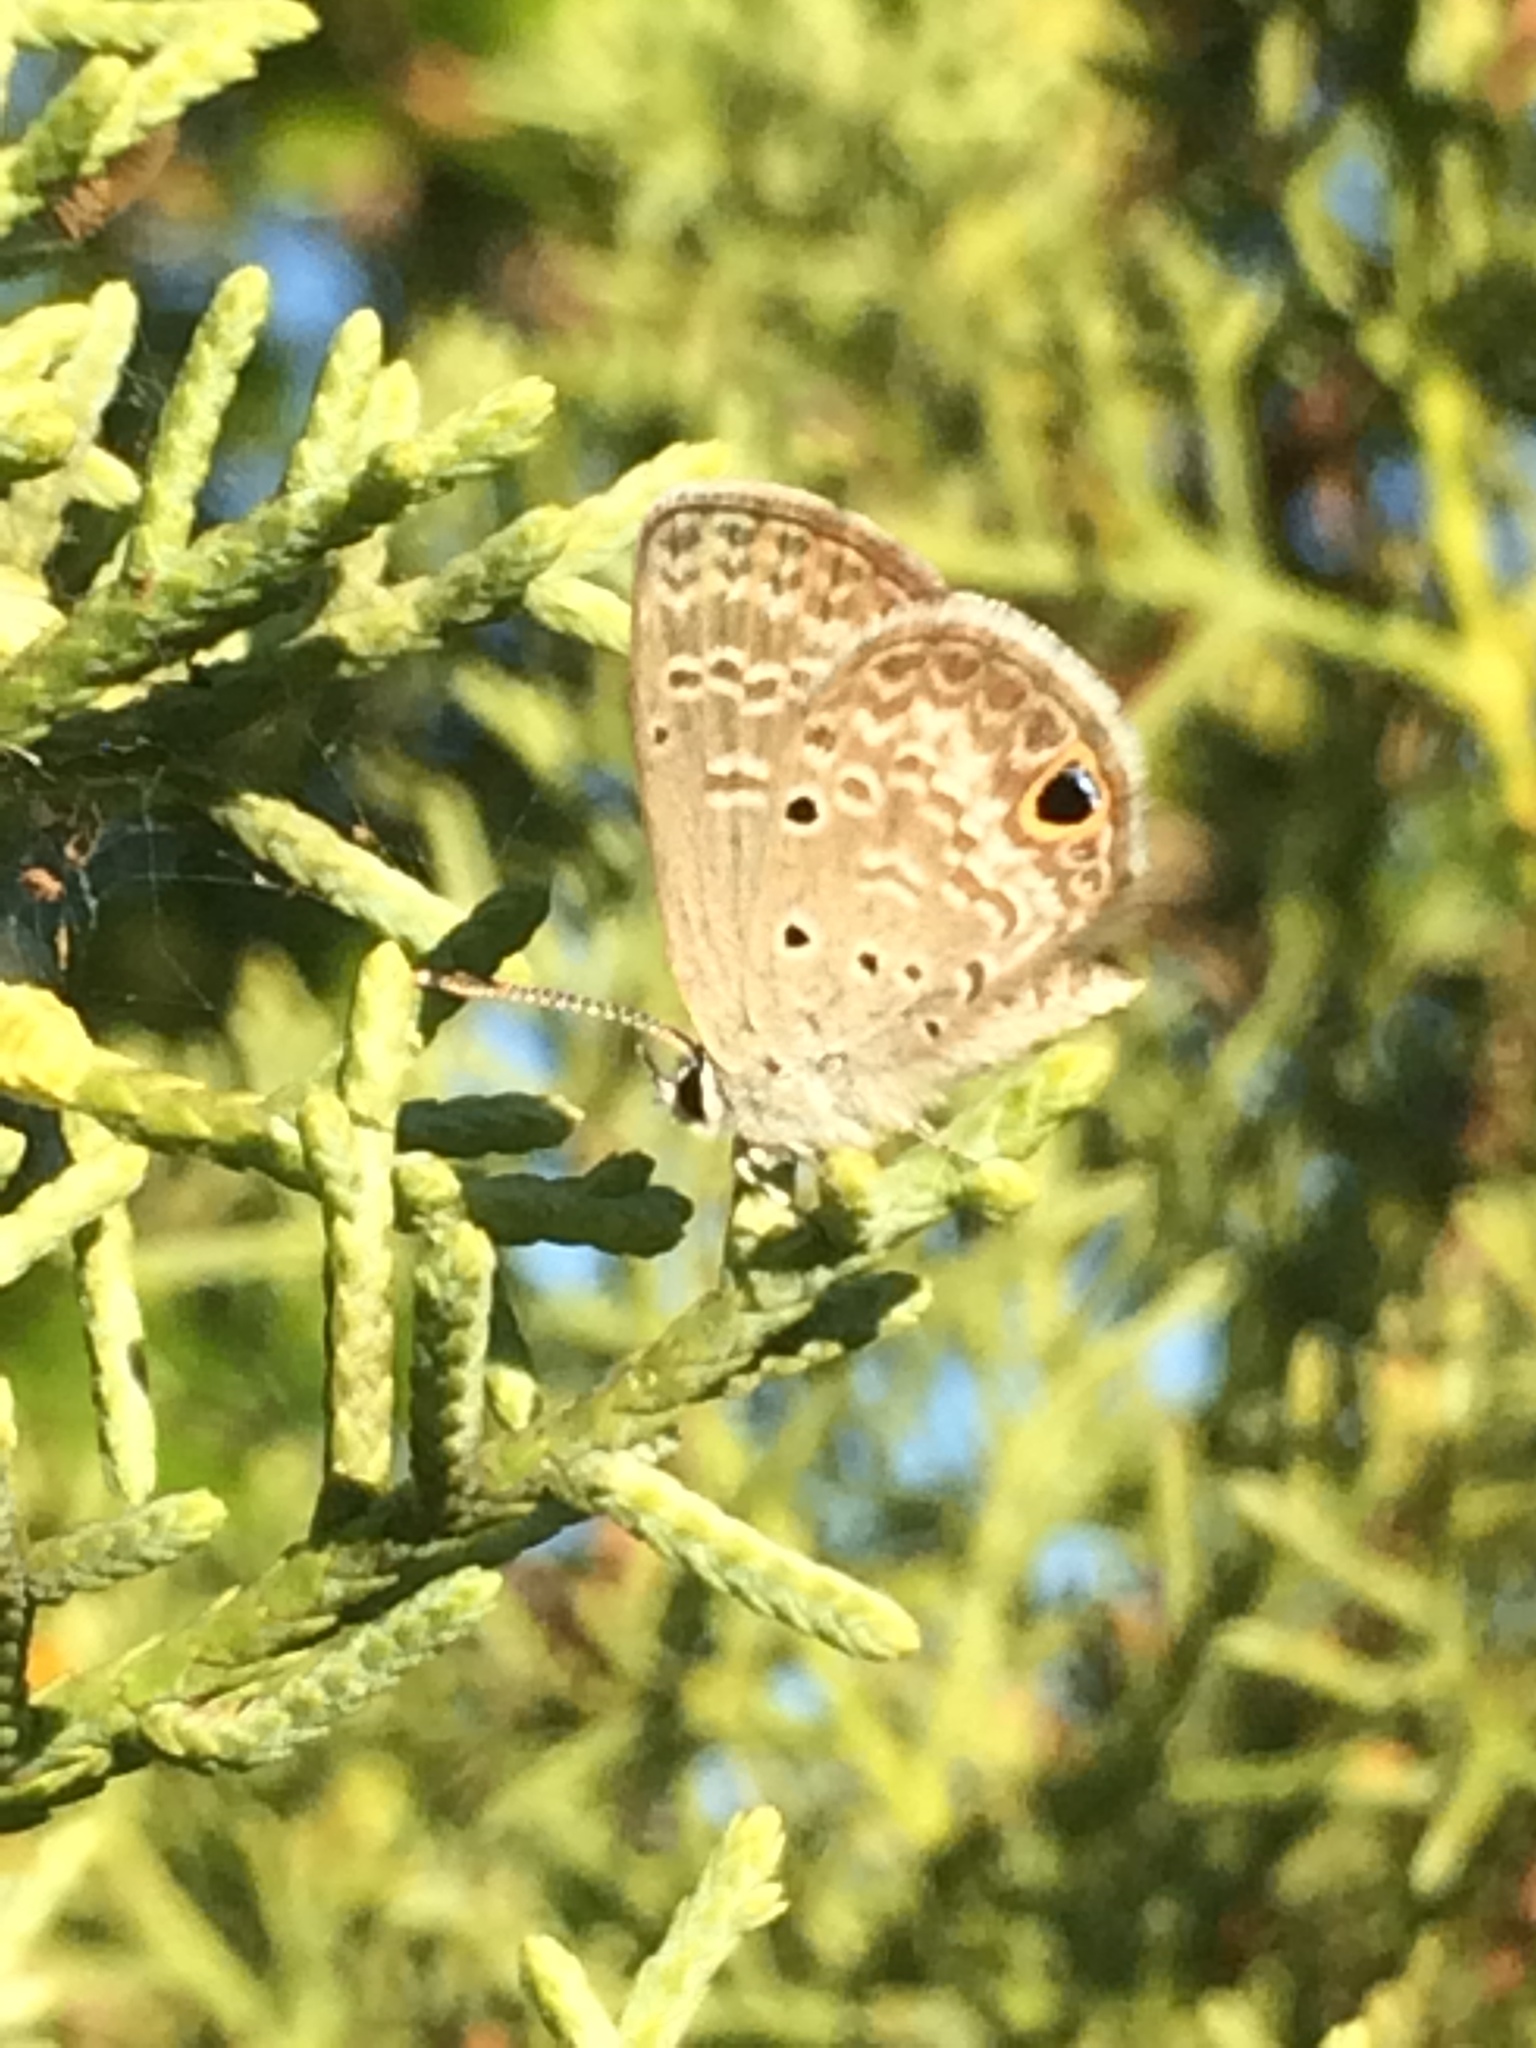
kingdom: Animalia
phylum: Arthropoda
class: Insecta
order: Lepidoptera
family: Lycaenidae
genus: Hemiargus
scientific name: Hemiargus ceraunus
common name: Ceraunus blue
